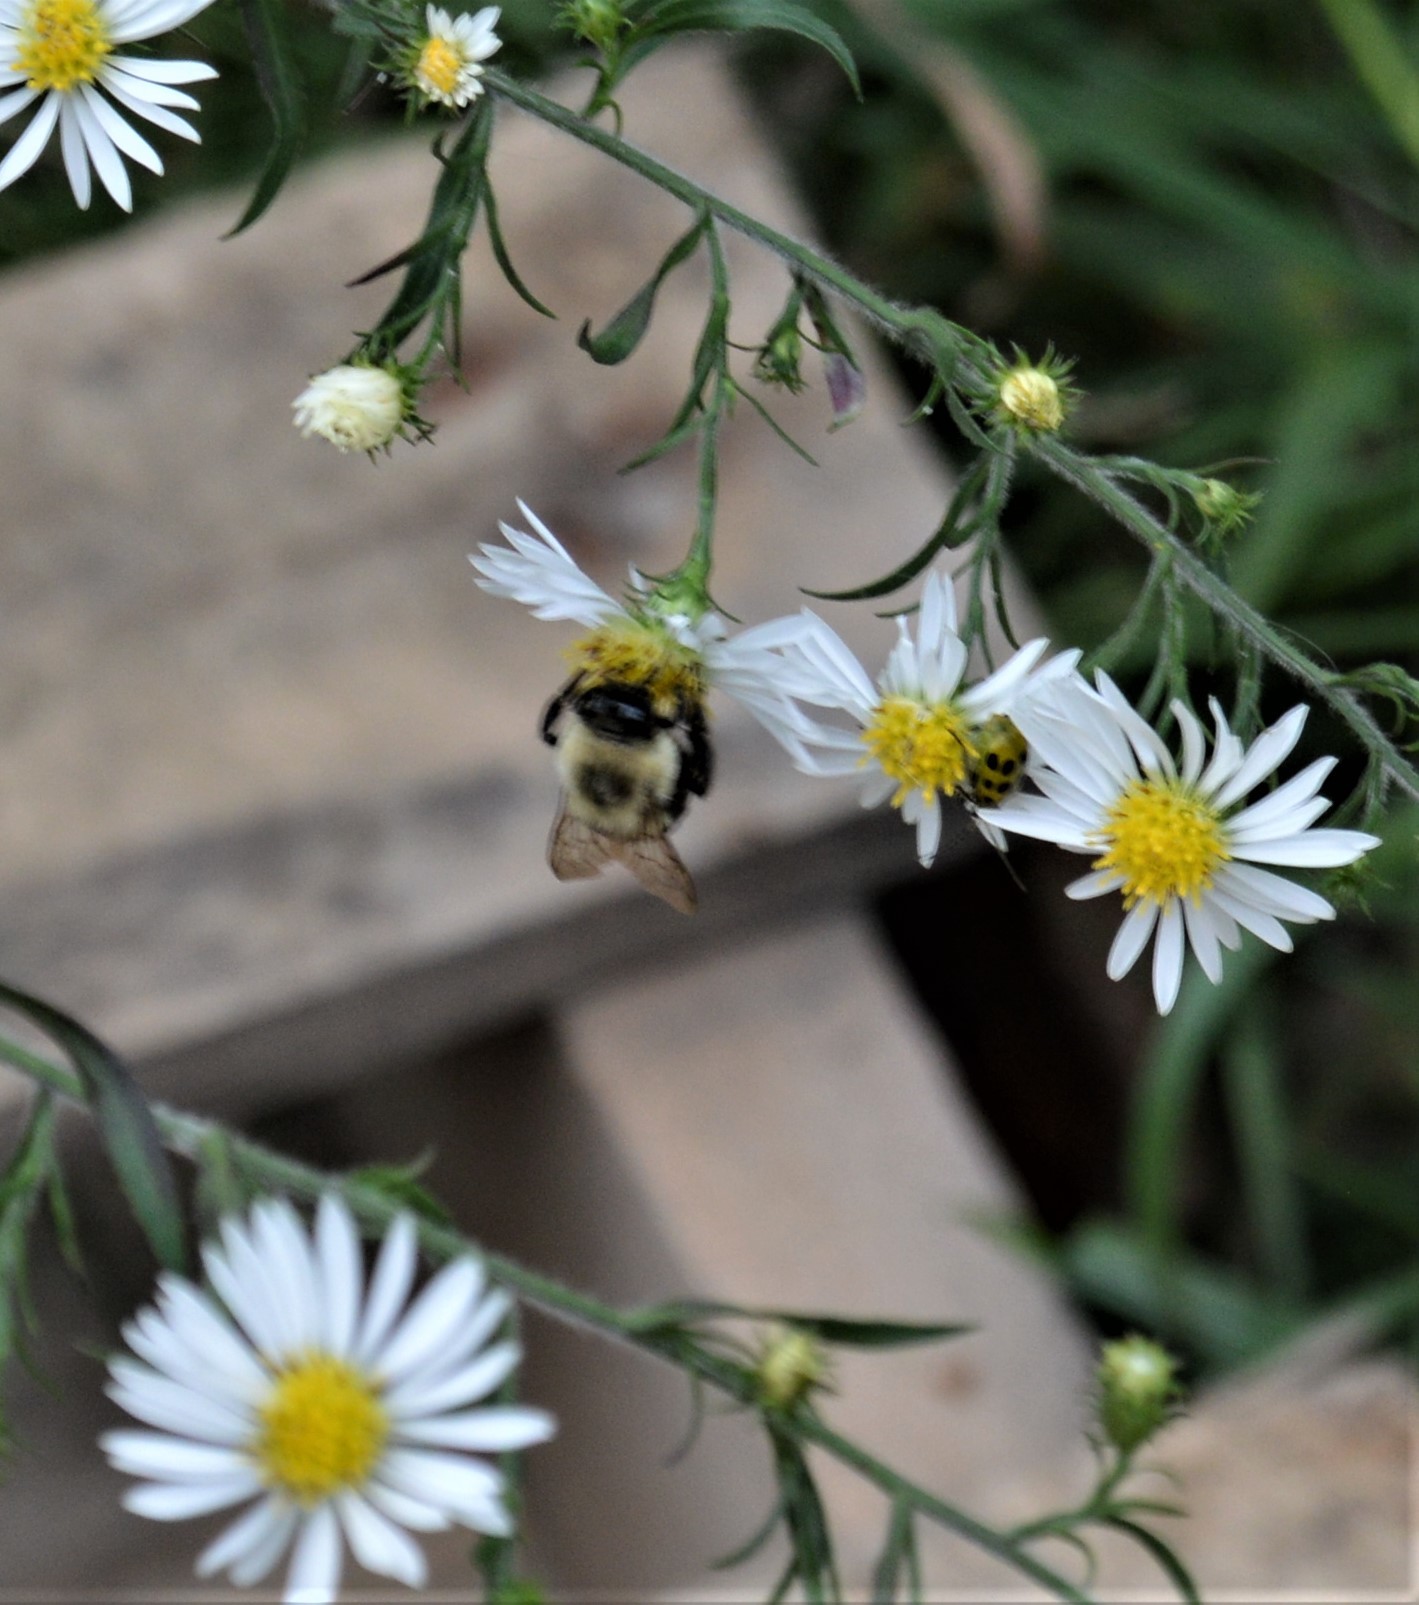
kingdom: Animalia
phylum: Arthropoda
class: Insecta
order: Hymenoptera
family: Apidae
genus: Bombus
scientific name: Bombus impatiens
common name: Common eastern bumble bee
